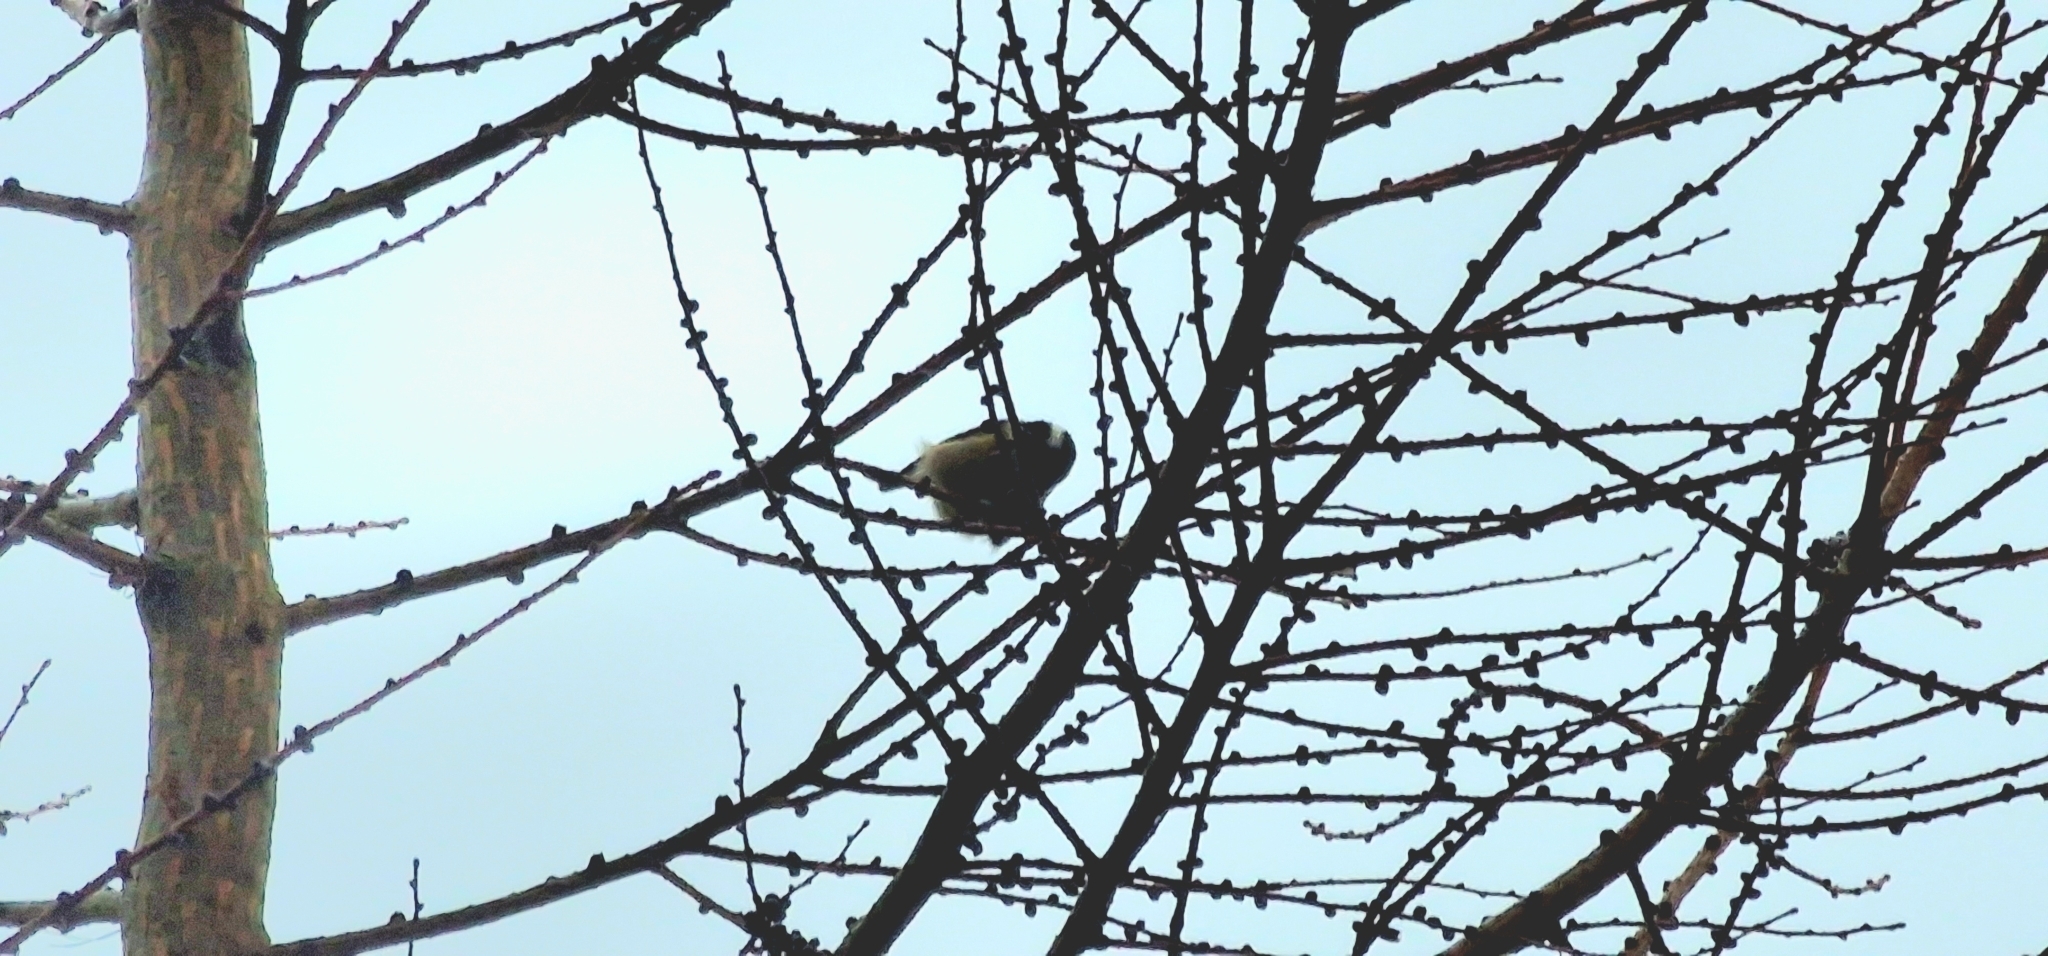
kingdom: Animalia
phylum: Chordata
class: Aves
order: Passeriformes
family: Paridae
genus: Periparus
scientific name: Periparus ater
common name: Coal tit
